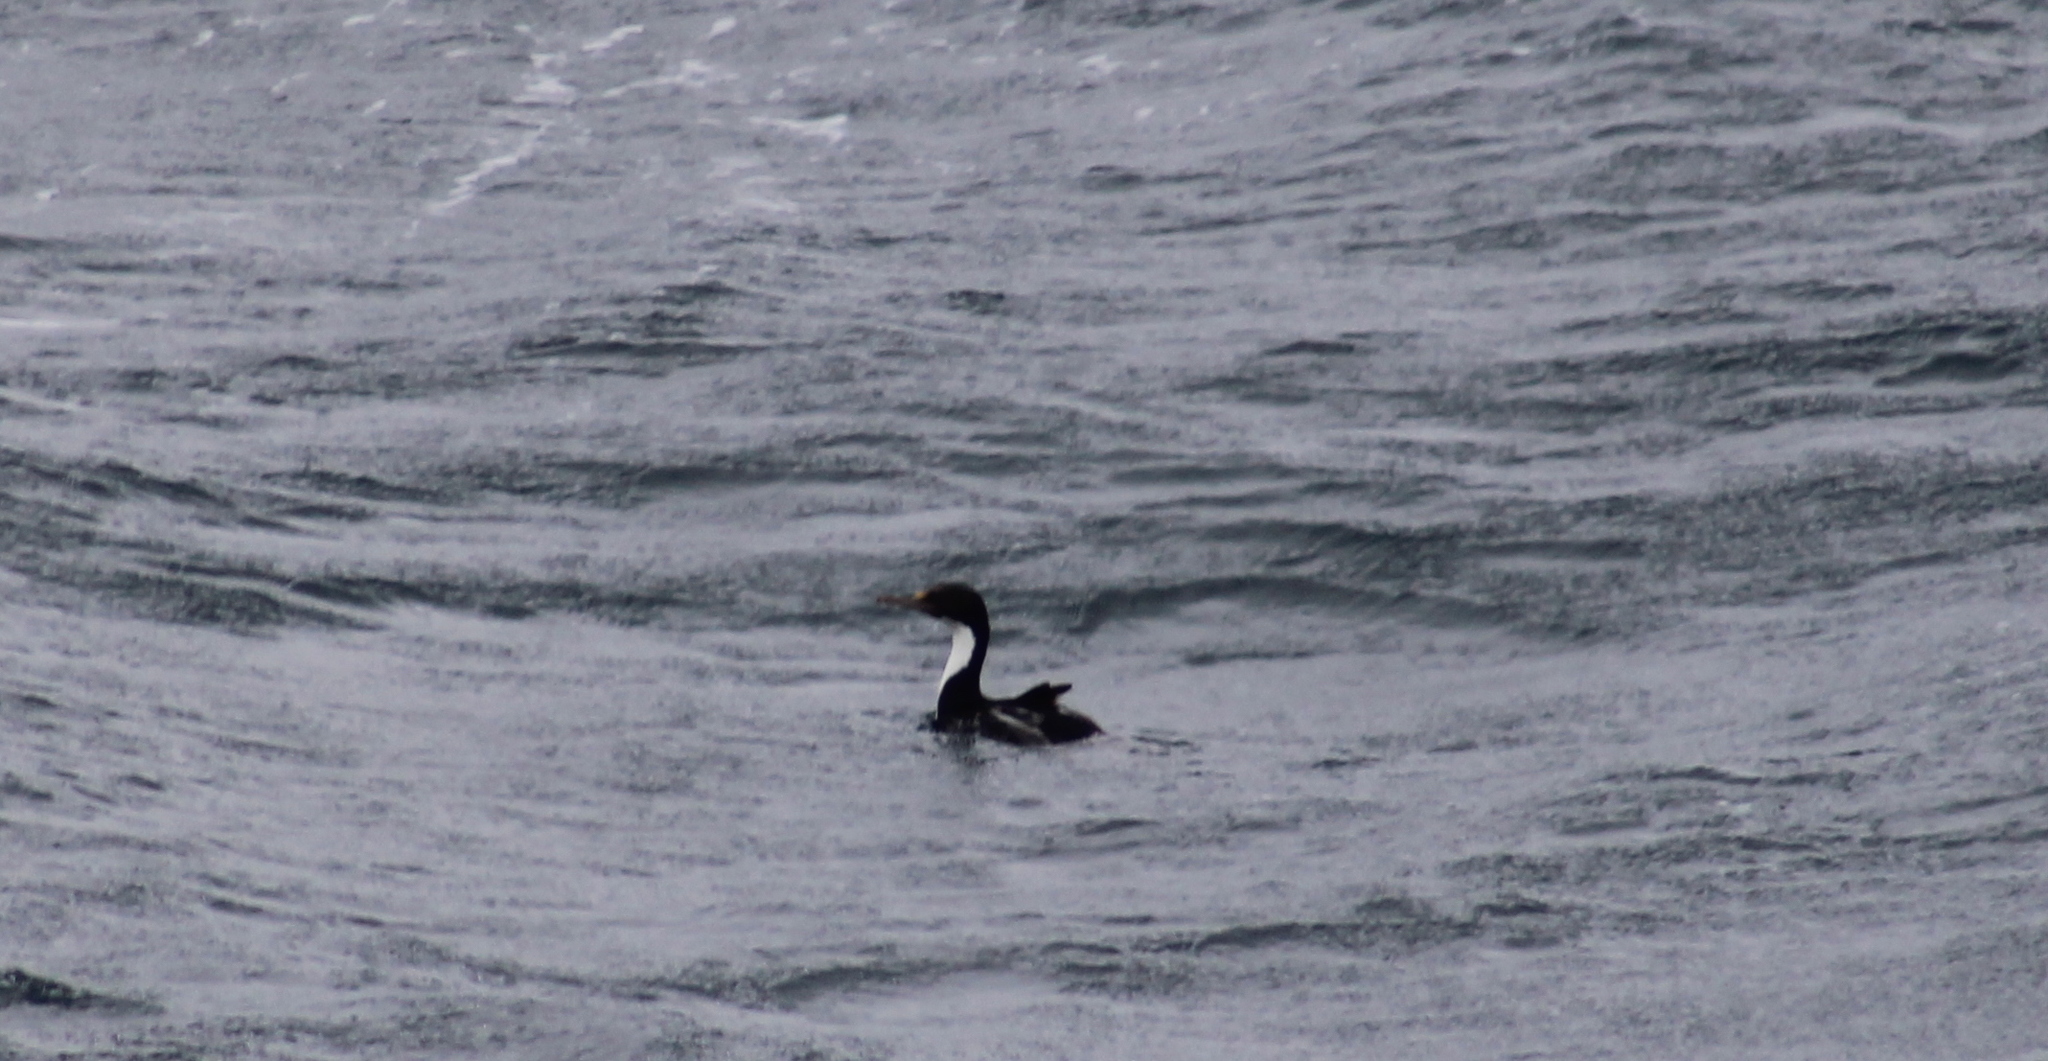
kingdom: Animalia
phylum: Chordata
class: Aves
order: Suliformes
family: Phalacrocoracidae
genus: Leucocarbo
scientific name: Leucocarbo atriceps
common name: Imperial shag
